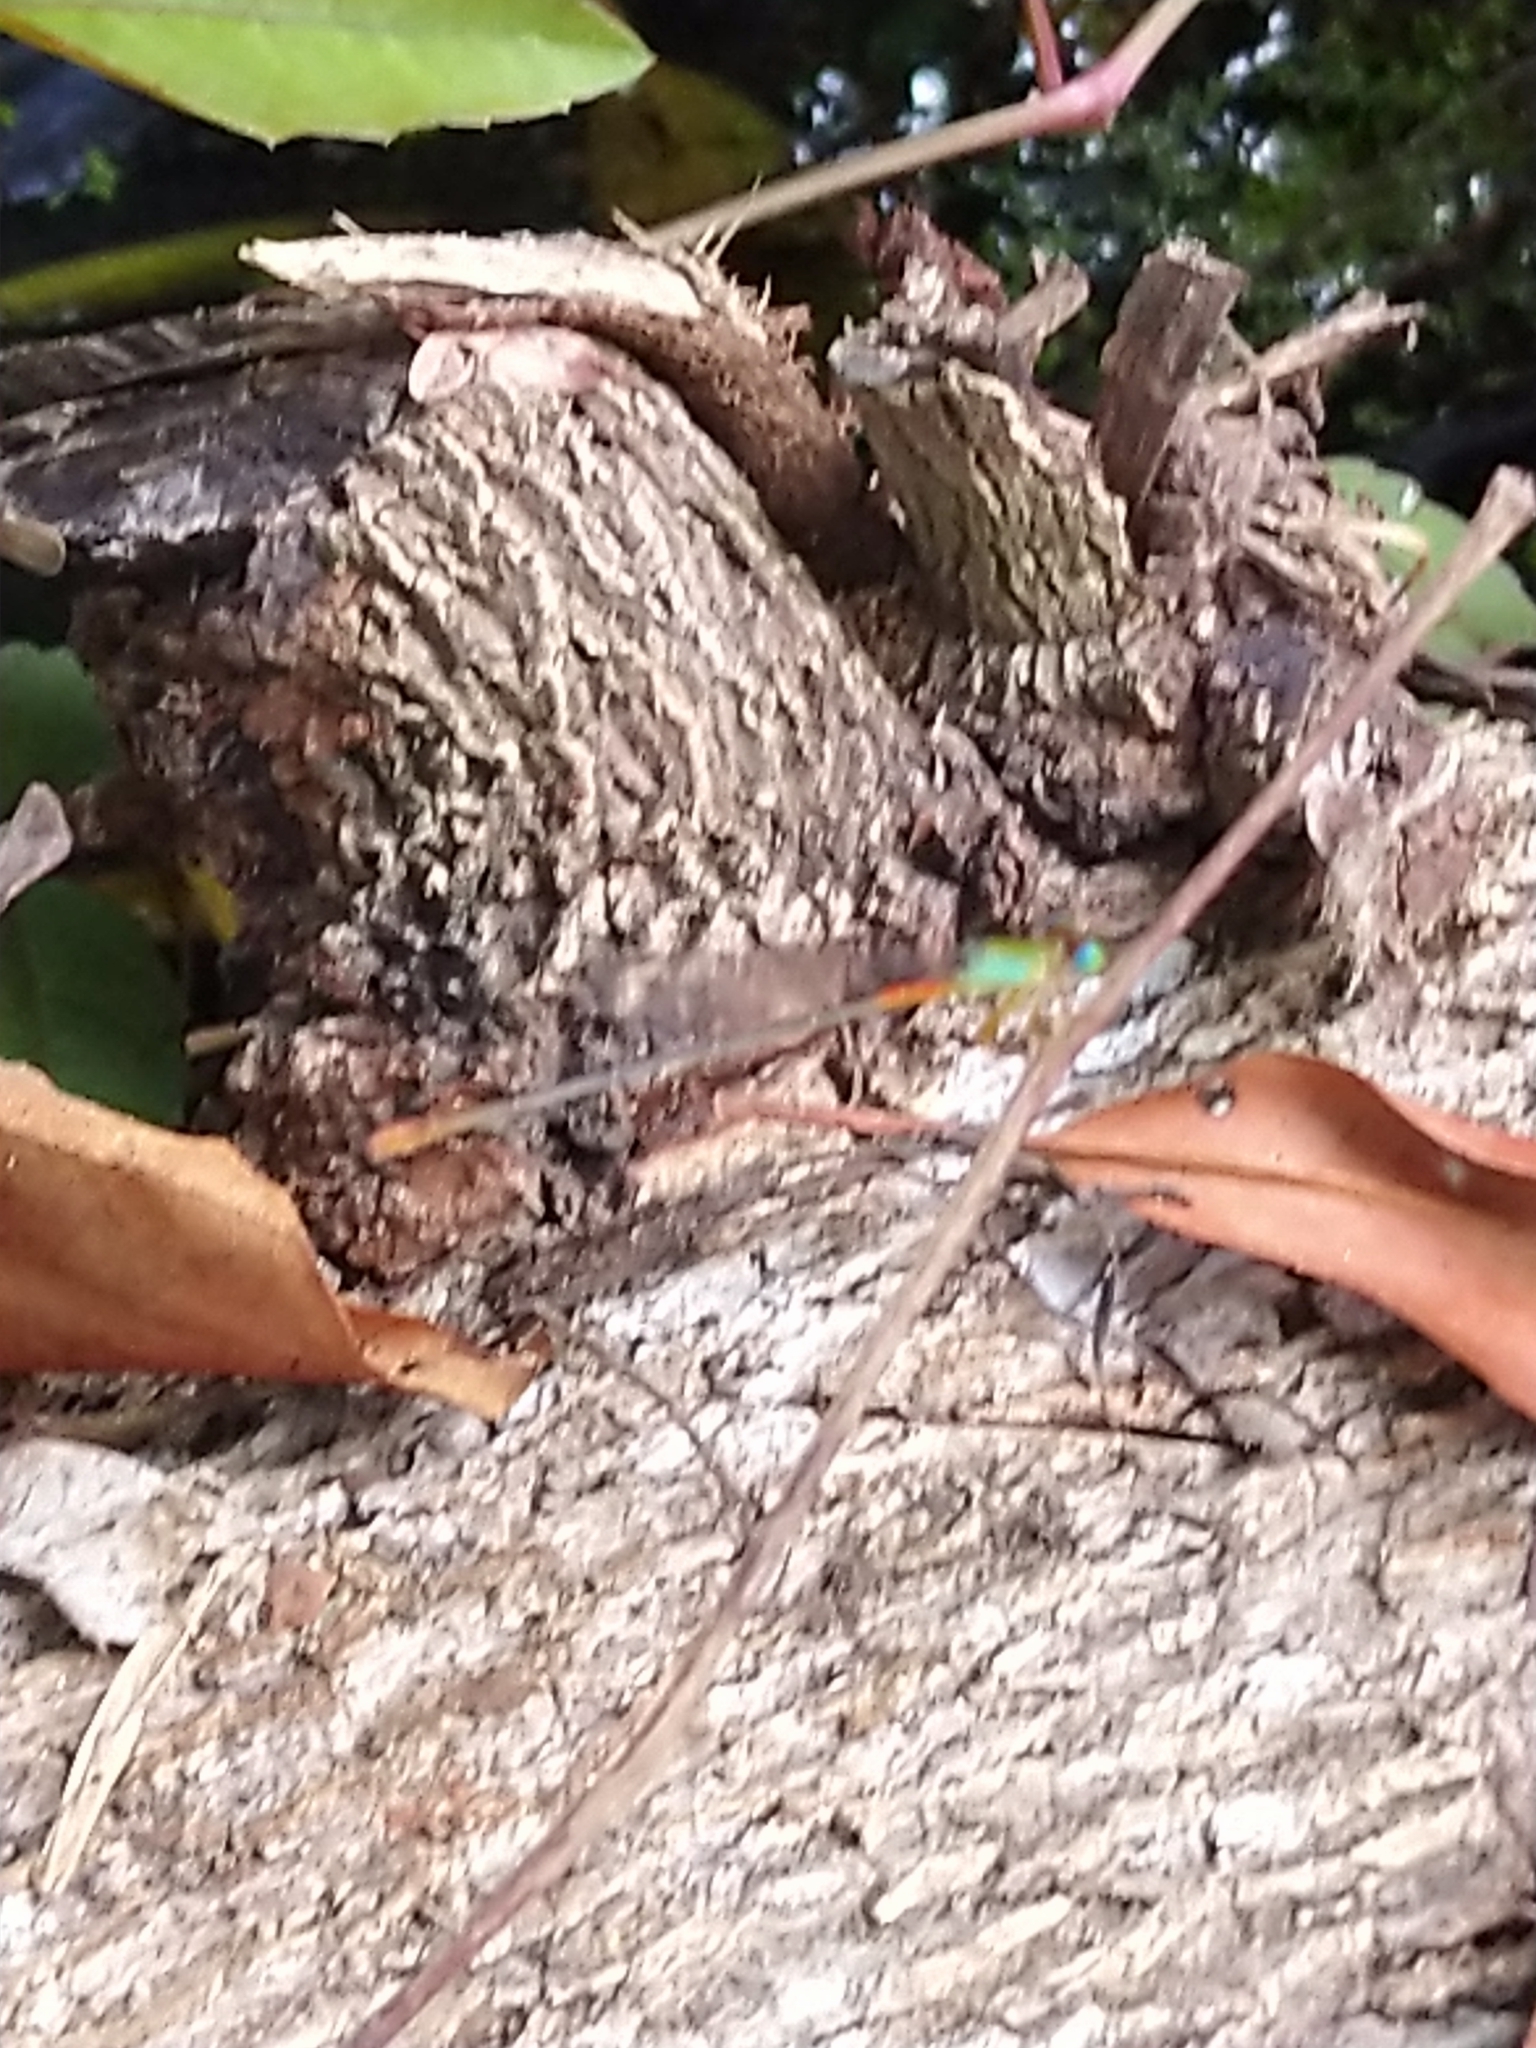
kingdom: Animalia
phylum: Arthropoda
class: Insecta
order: Odonata
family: Coenagrionidae
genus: Ceriagrion
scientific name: Ceriagrion cerinorubellum
